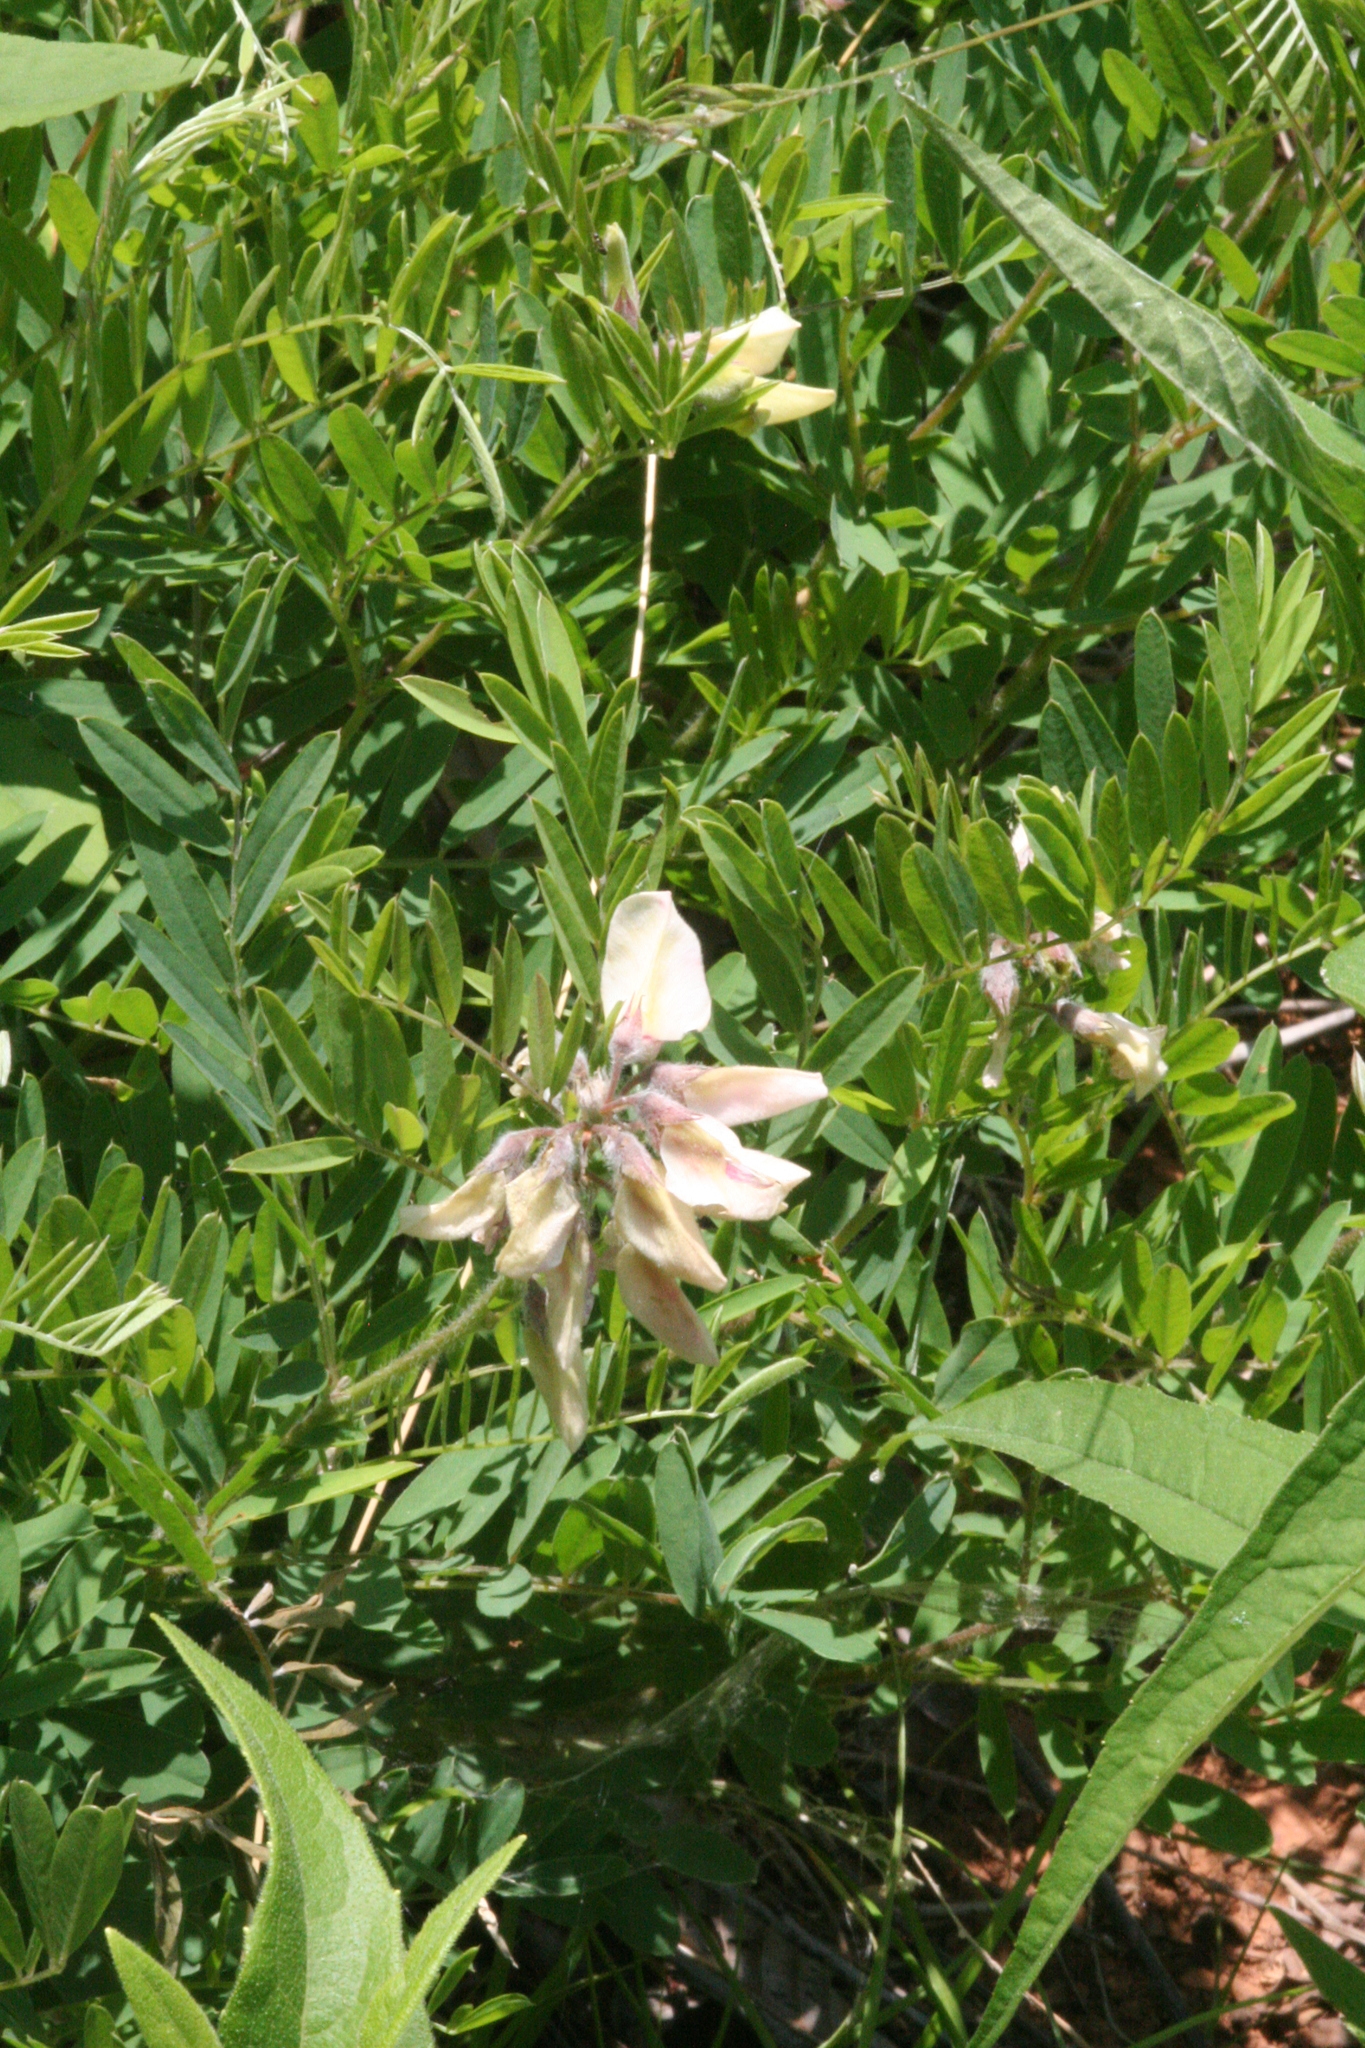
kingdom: Plantae
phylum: Tracheophyta
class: Magnoliopsida
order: Fabales
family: Fabaceae
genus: Tephrosia
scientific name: Tephrosia virginiana
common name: Rabbit-pea
